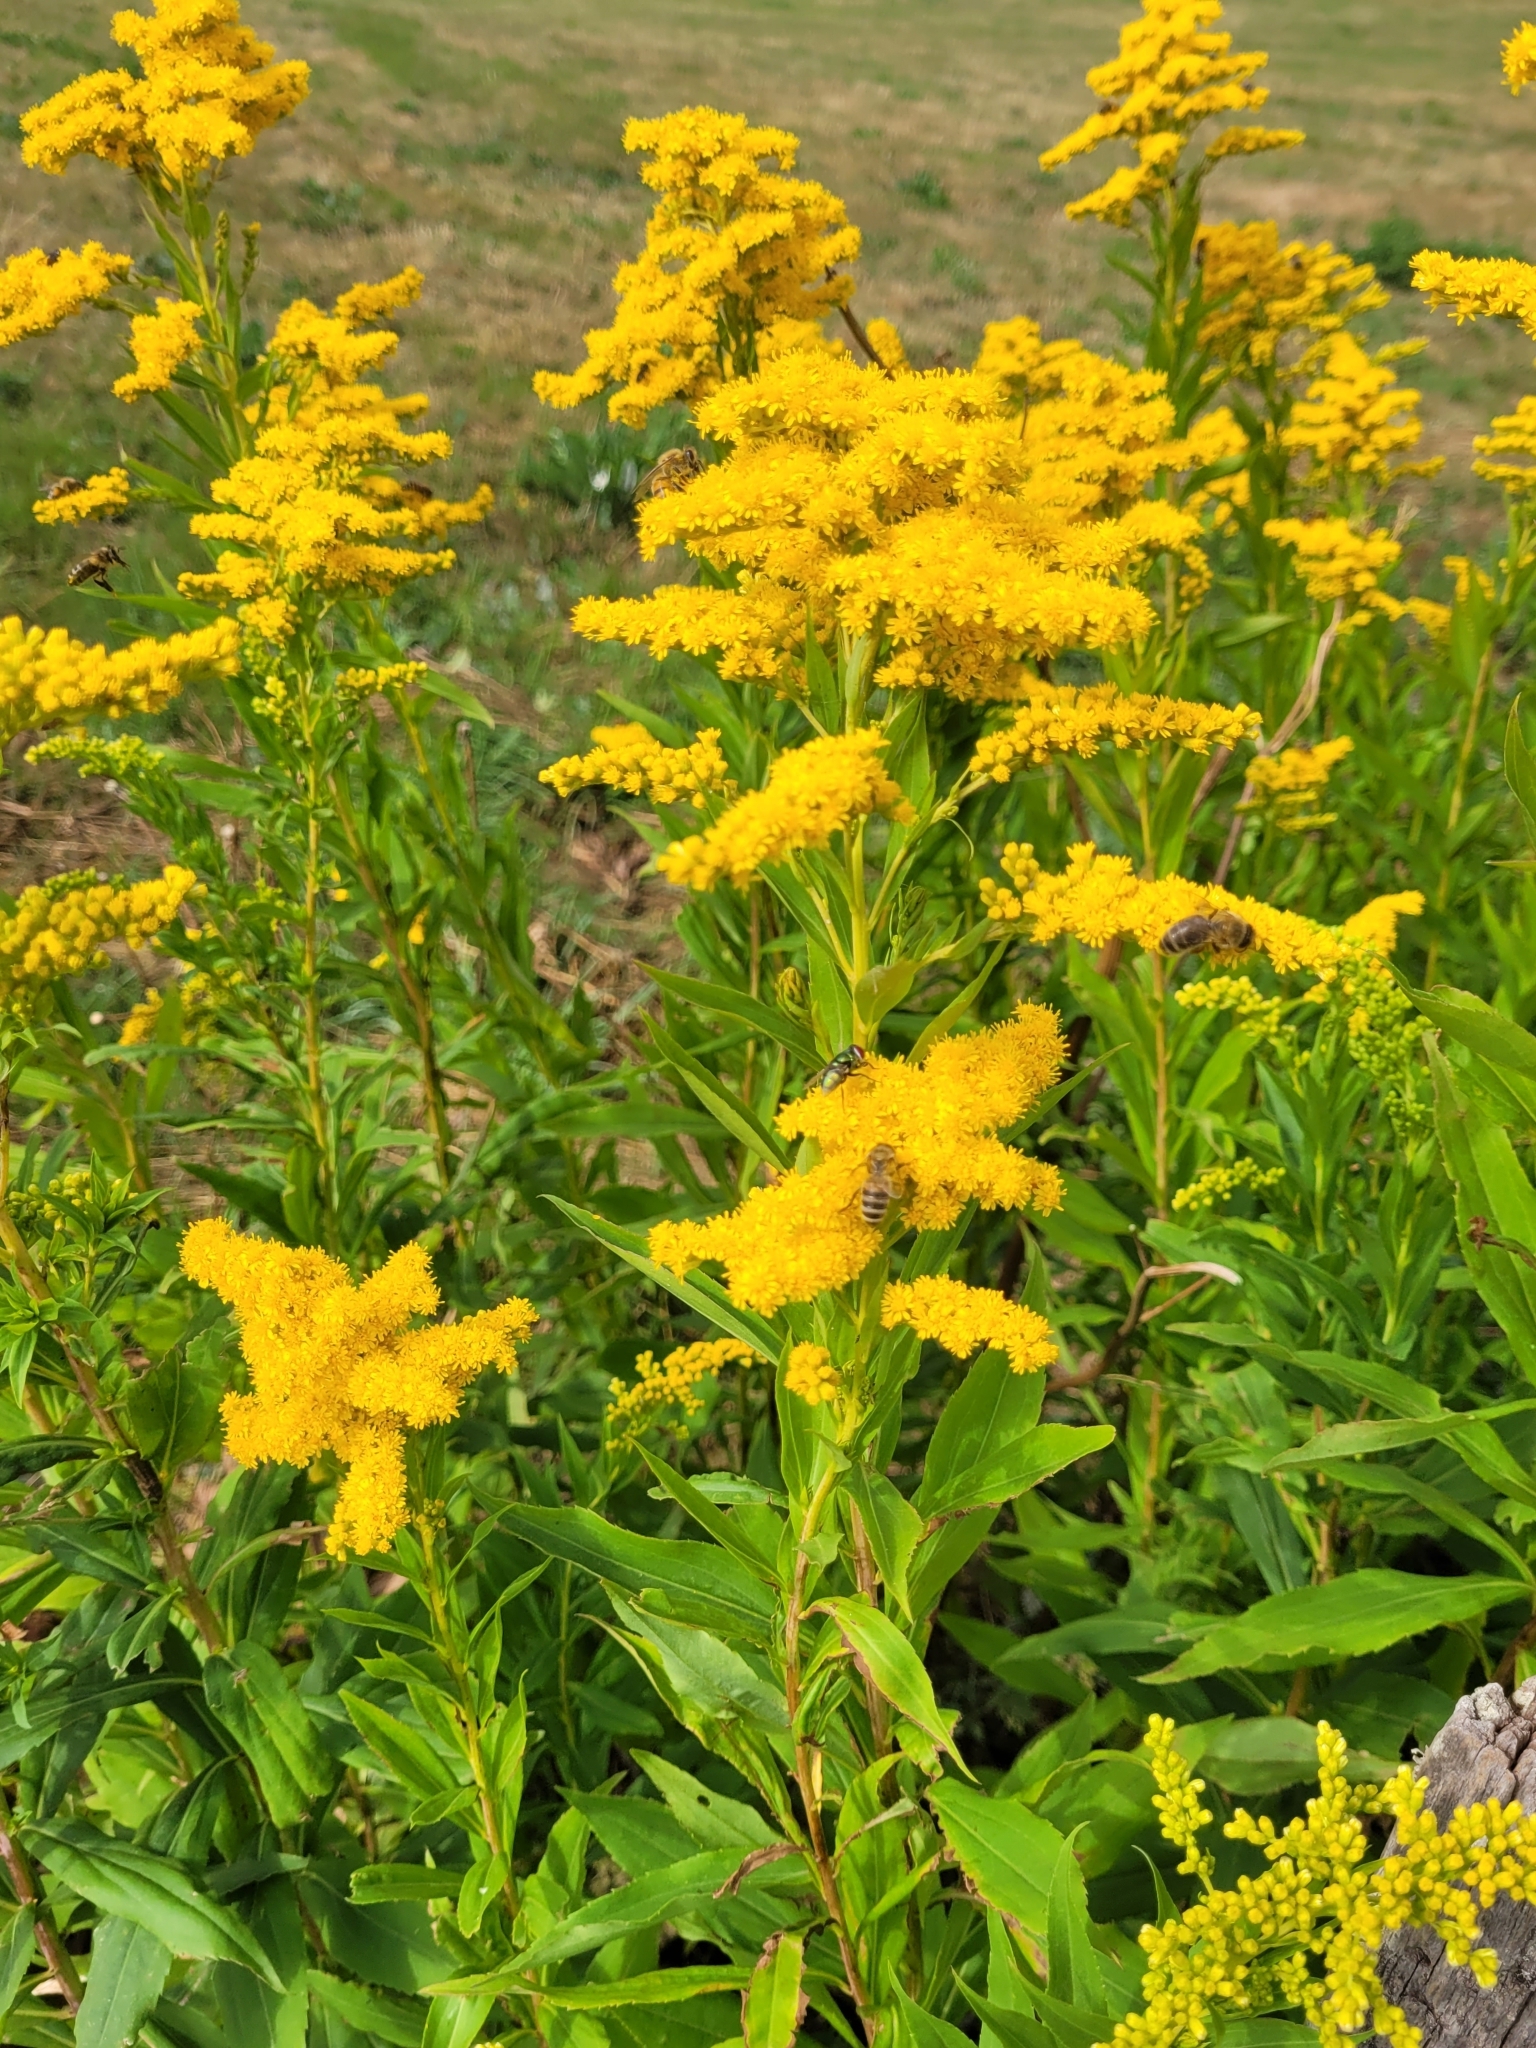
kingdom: Plantae
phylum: Tracheophyta
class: Magnoliopsida
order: Asterales
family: Asteraceae
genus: Solidago
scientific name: Solidago gigantea
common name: Giant goldenrod
